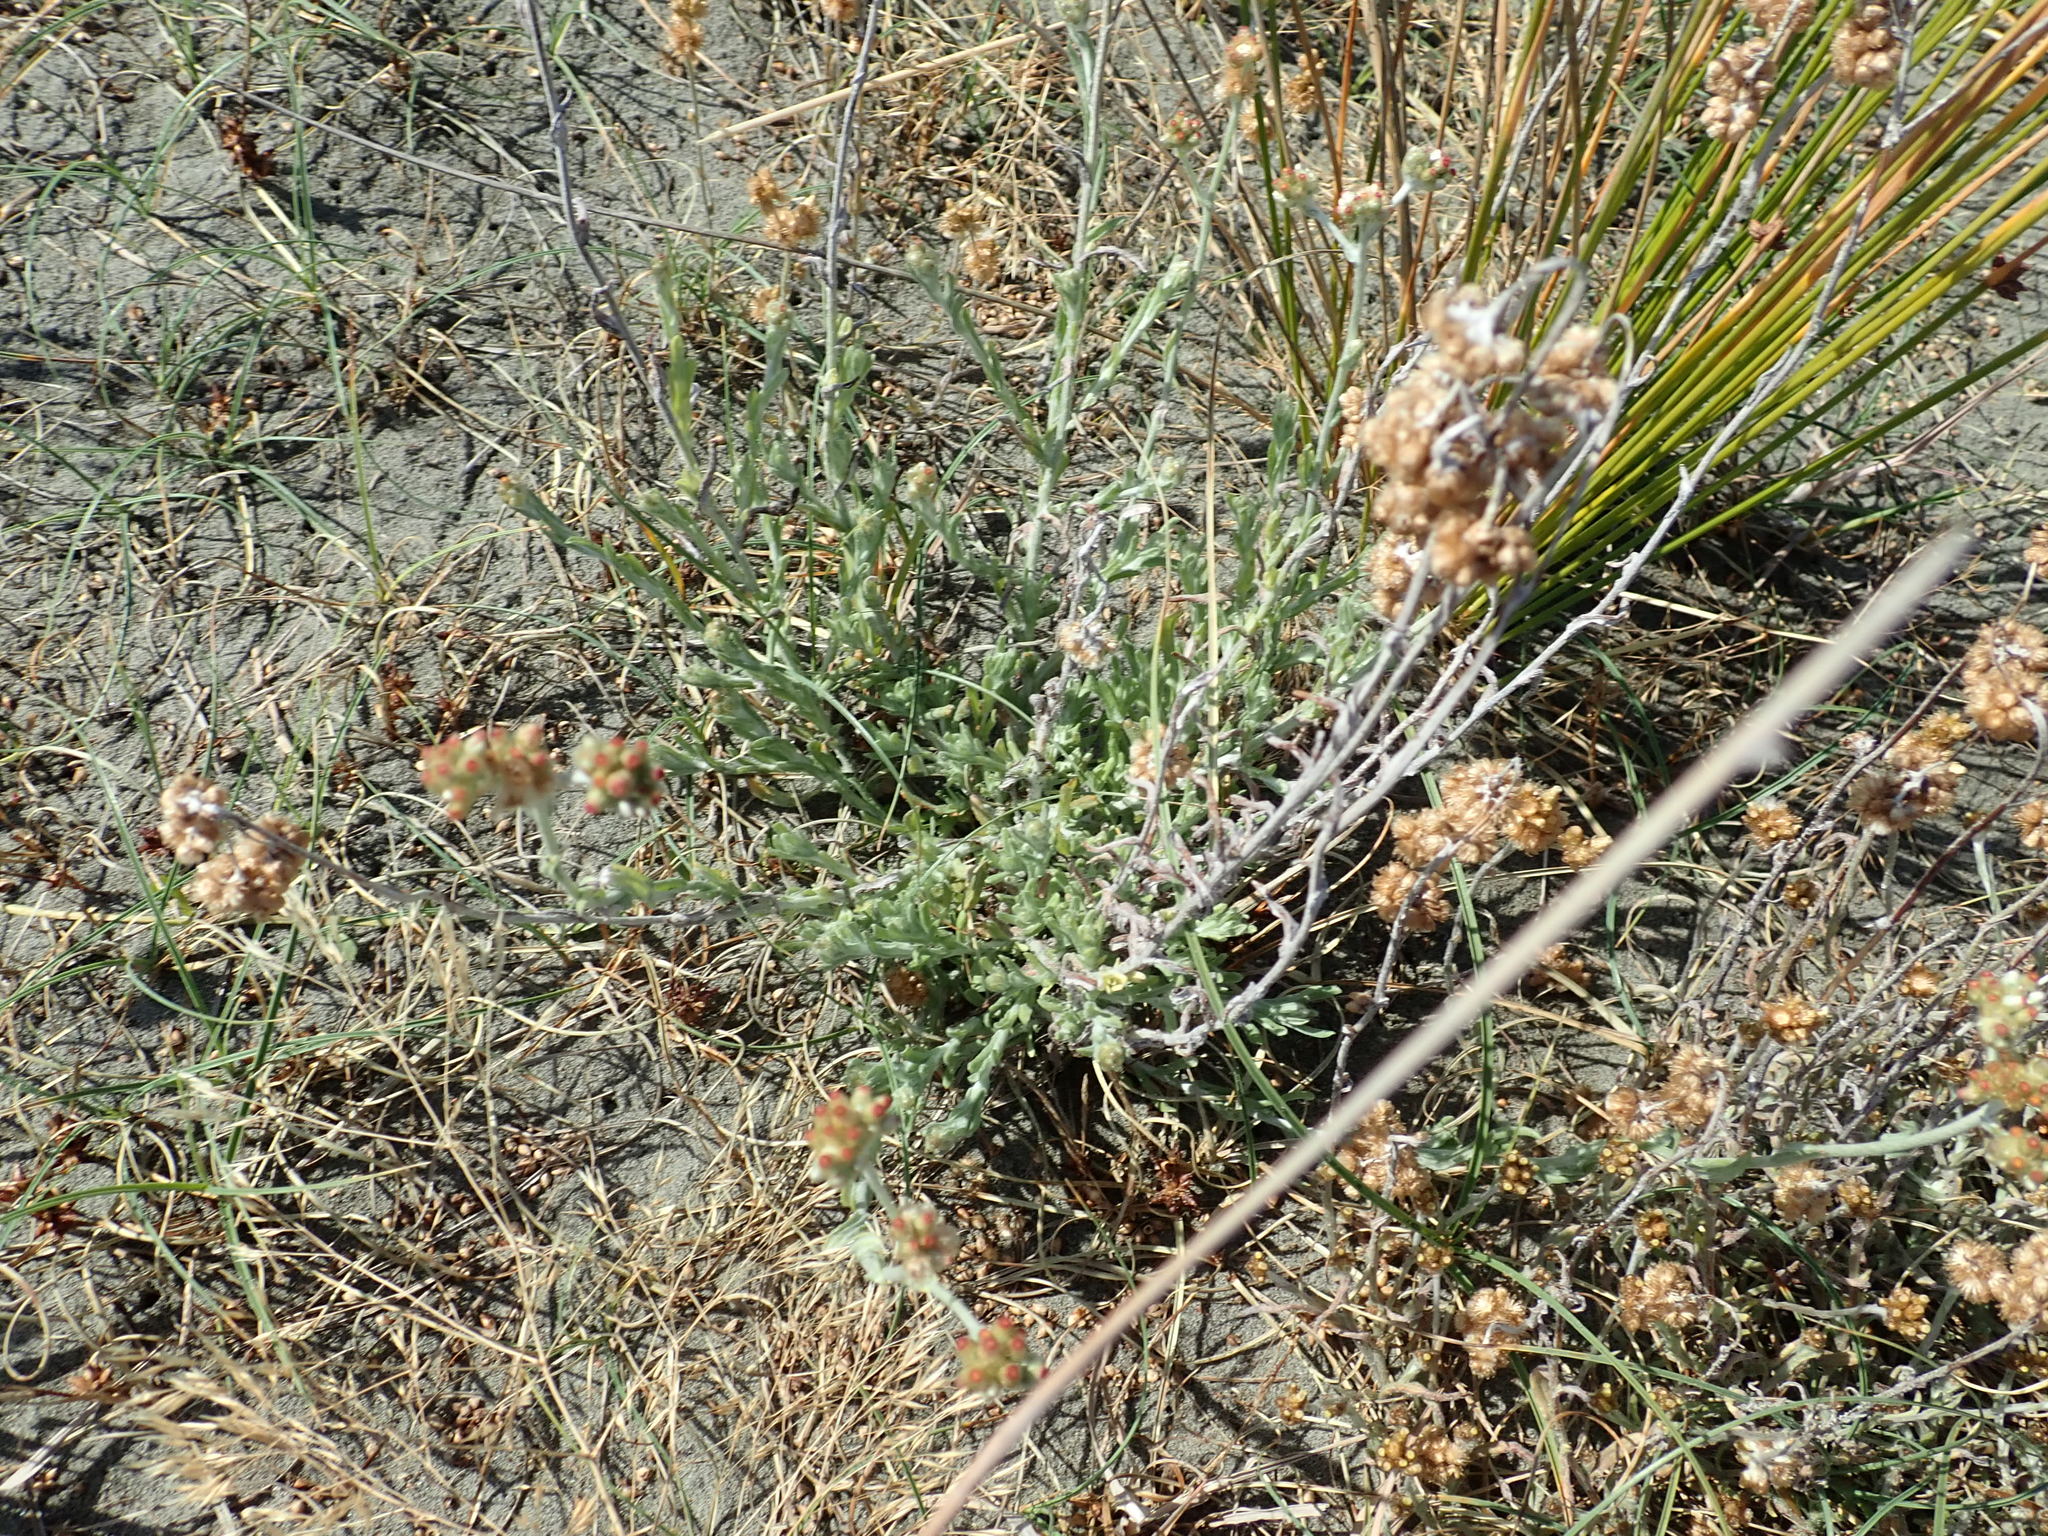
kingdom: Plantae
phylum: Tracheophyta
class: Magnoliopsida
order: Asterales
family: Asteraceae
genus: Helichrysum
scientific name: Helichrysum luteoalbum
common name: Daisy
